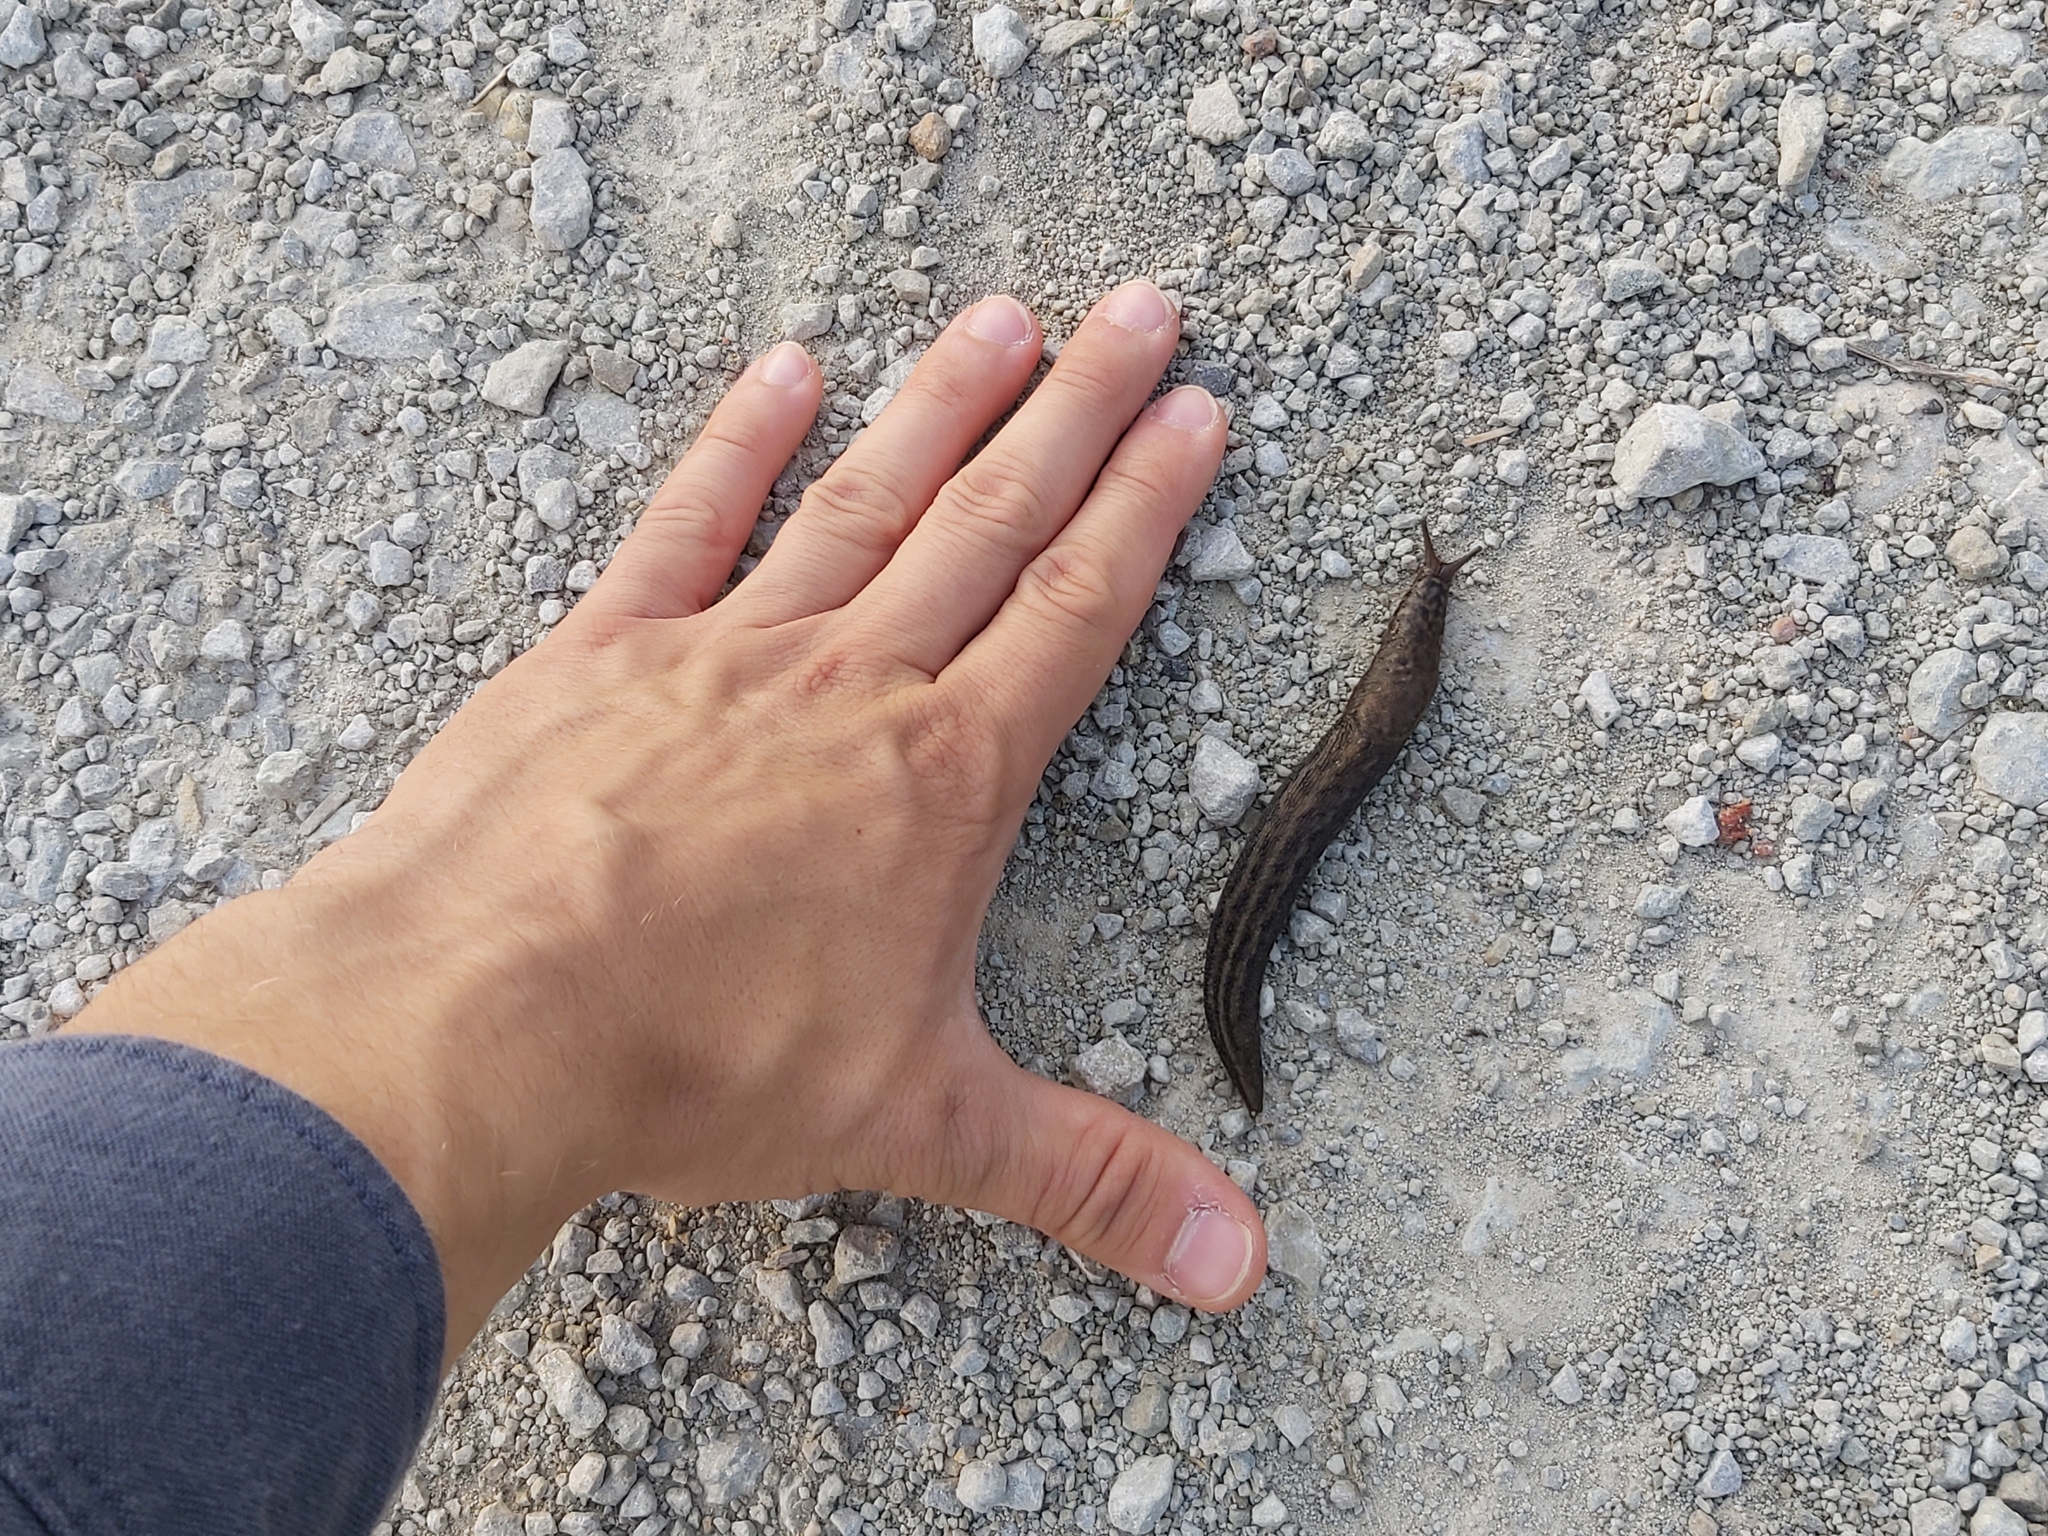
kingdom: Animalia
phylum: Mollusca
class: Gastropoda
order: Stylommatophora
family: Limacidae
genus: Limax
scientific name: Limax maximus
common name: Great grey slug
